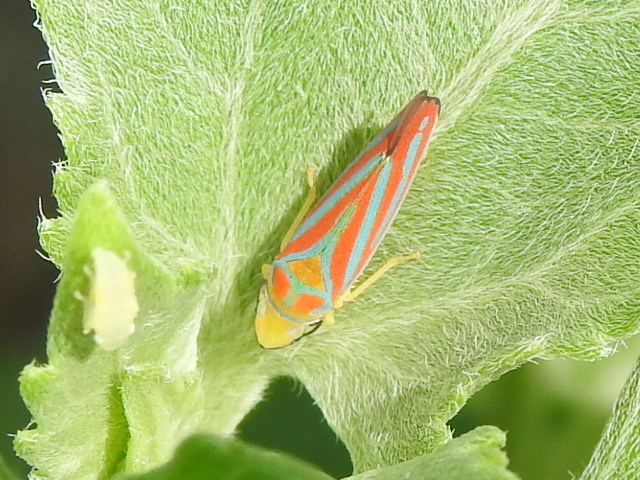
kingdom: Animalia
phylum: Arthropoda
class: Insecta
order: Hemiptera
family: Cicadellidae
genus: Graphocephala
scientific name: Graphocephala coccinea
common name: Candy-striped leafhopper
